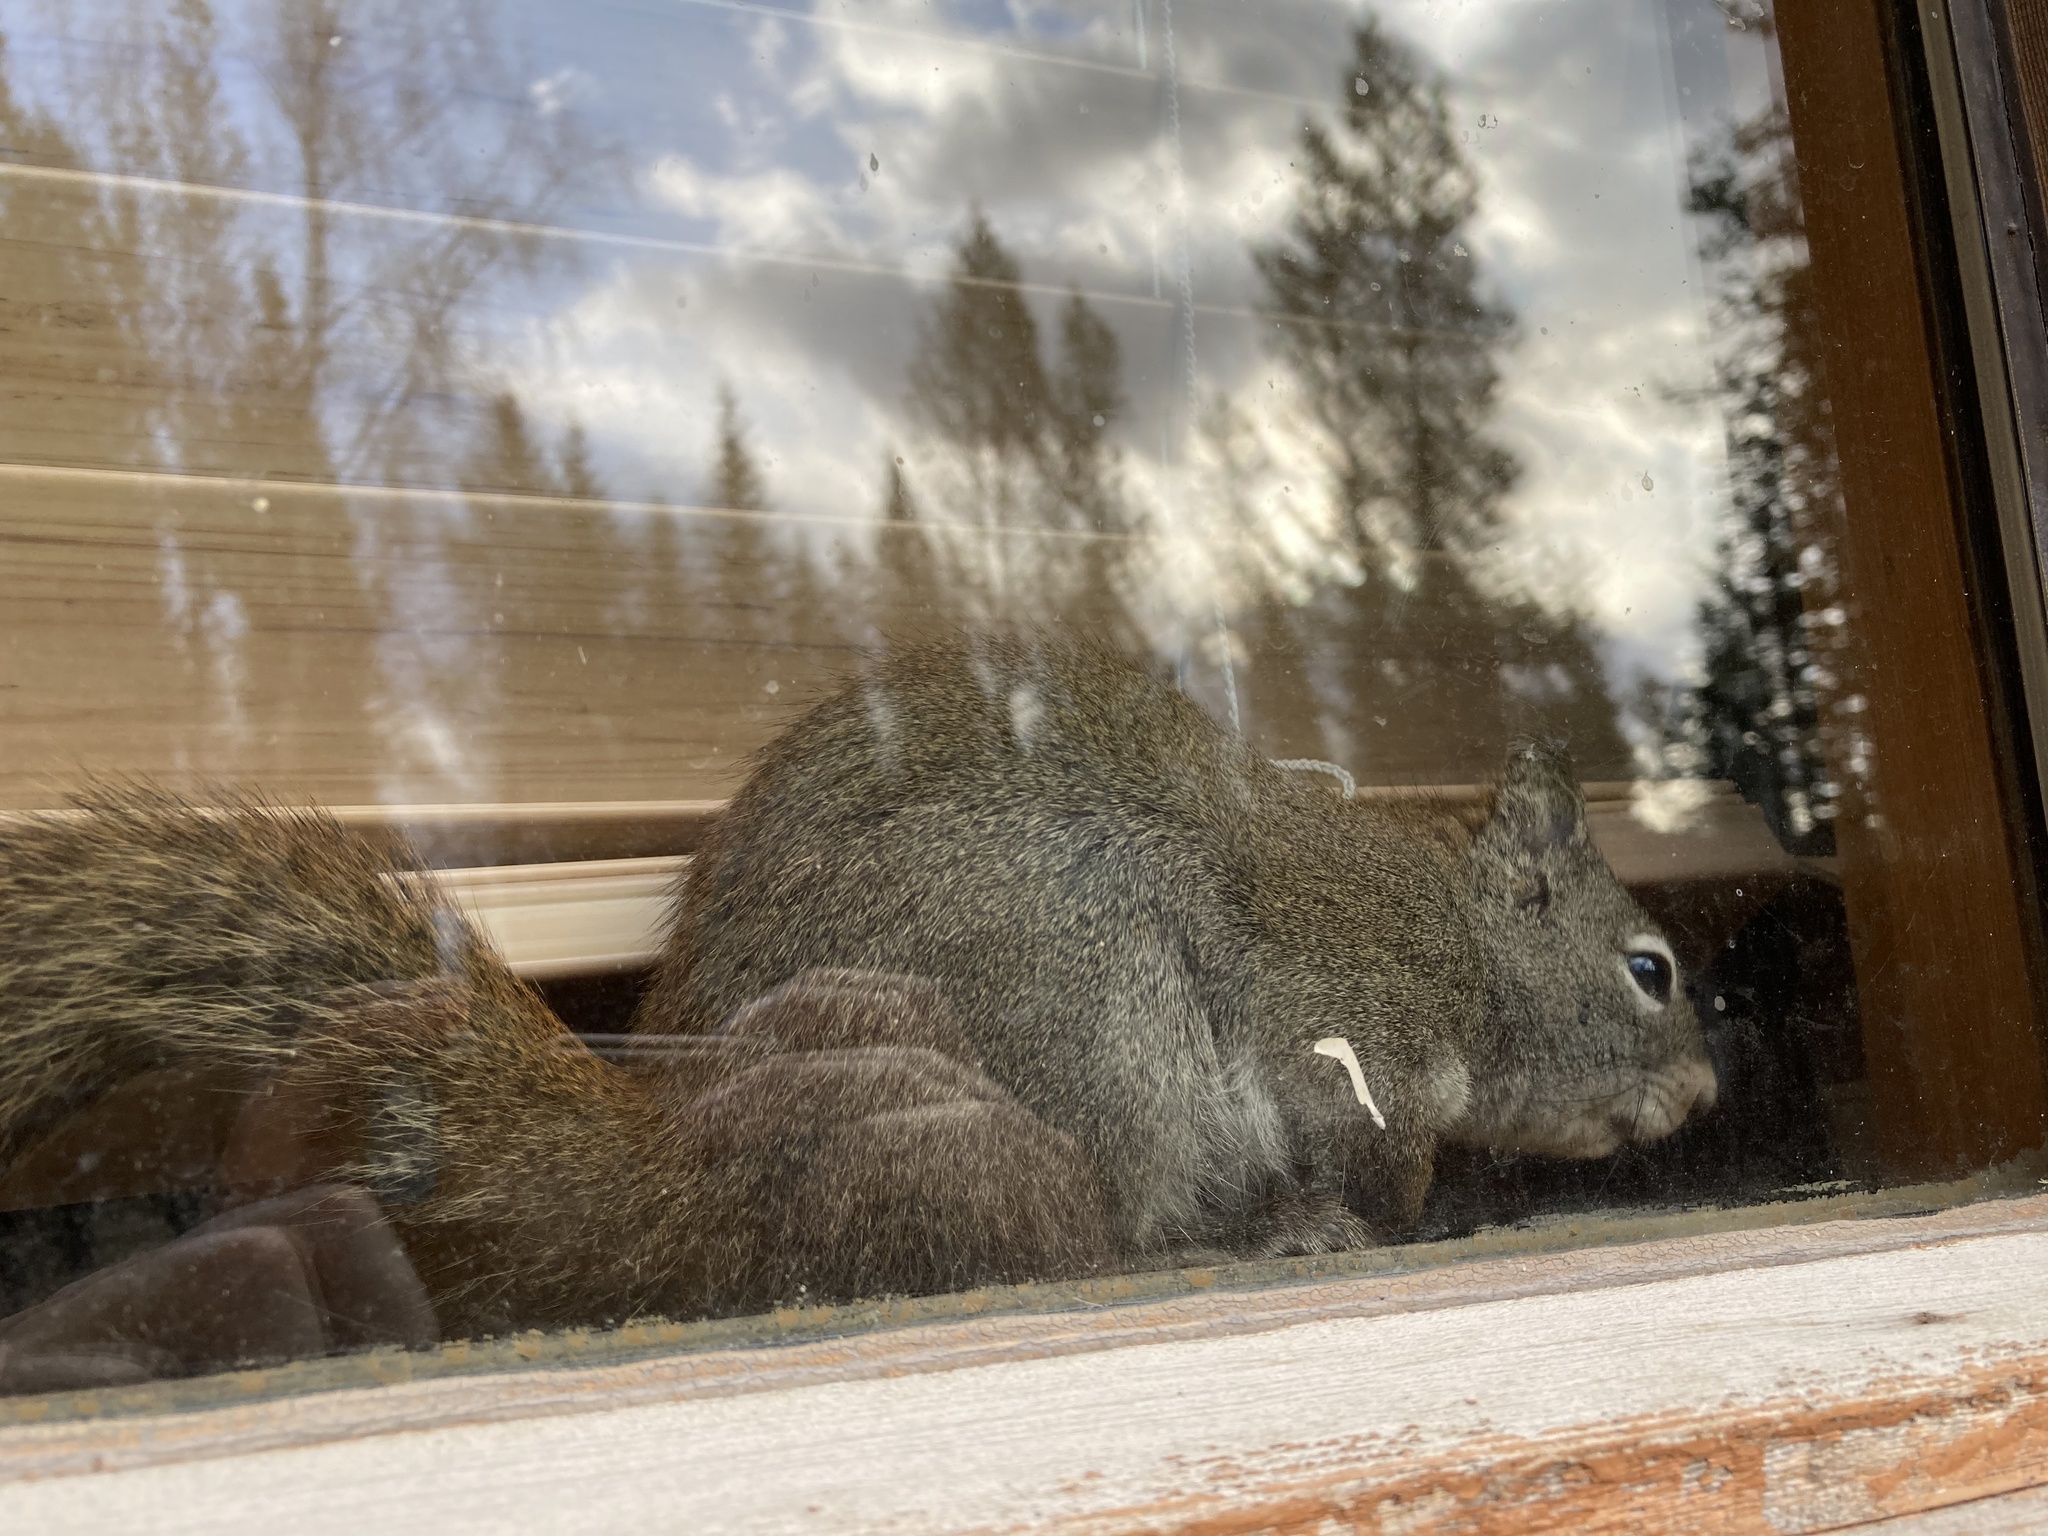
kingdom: Animalia
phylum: Chordata
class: Mammalia
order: Rodentia
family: Sciuridae
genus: Tamiasciurus
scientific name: Tamiasciurus hudsonicus
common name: Red squirrel
